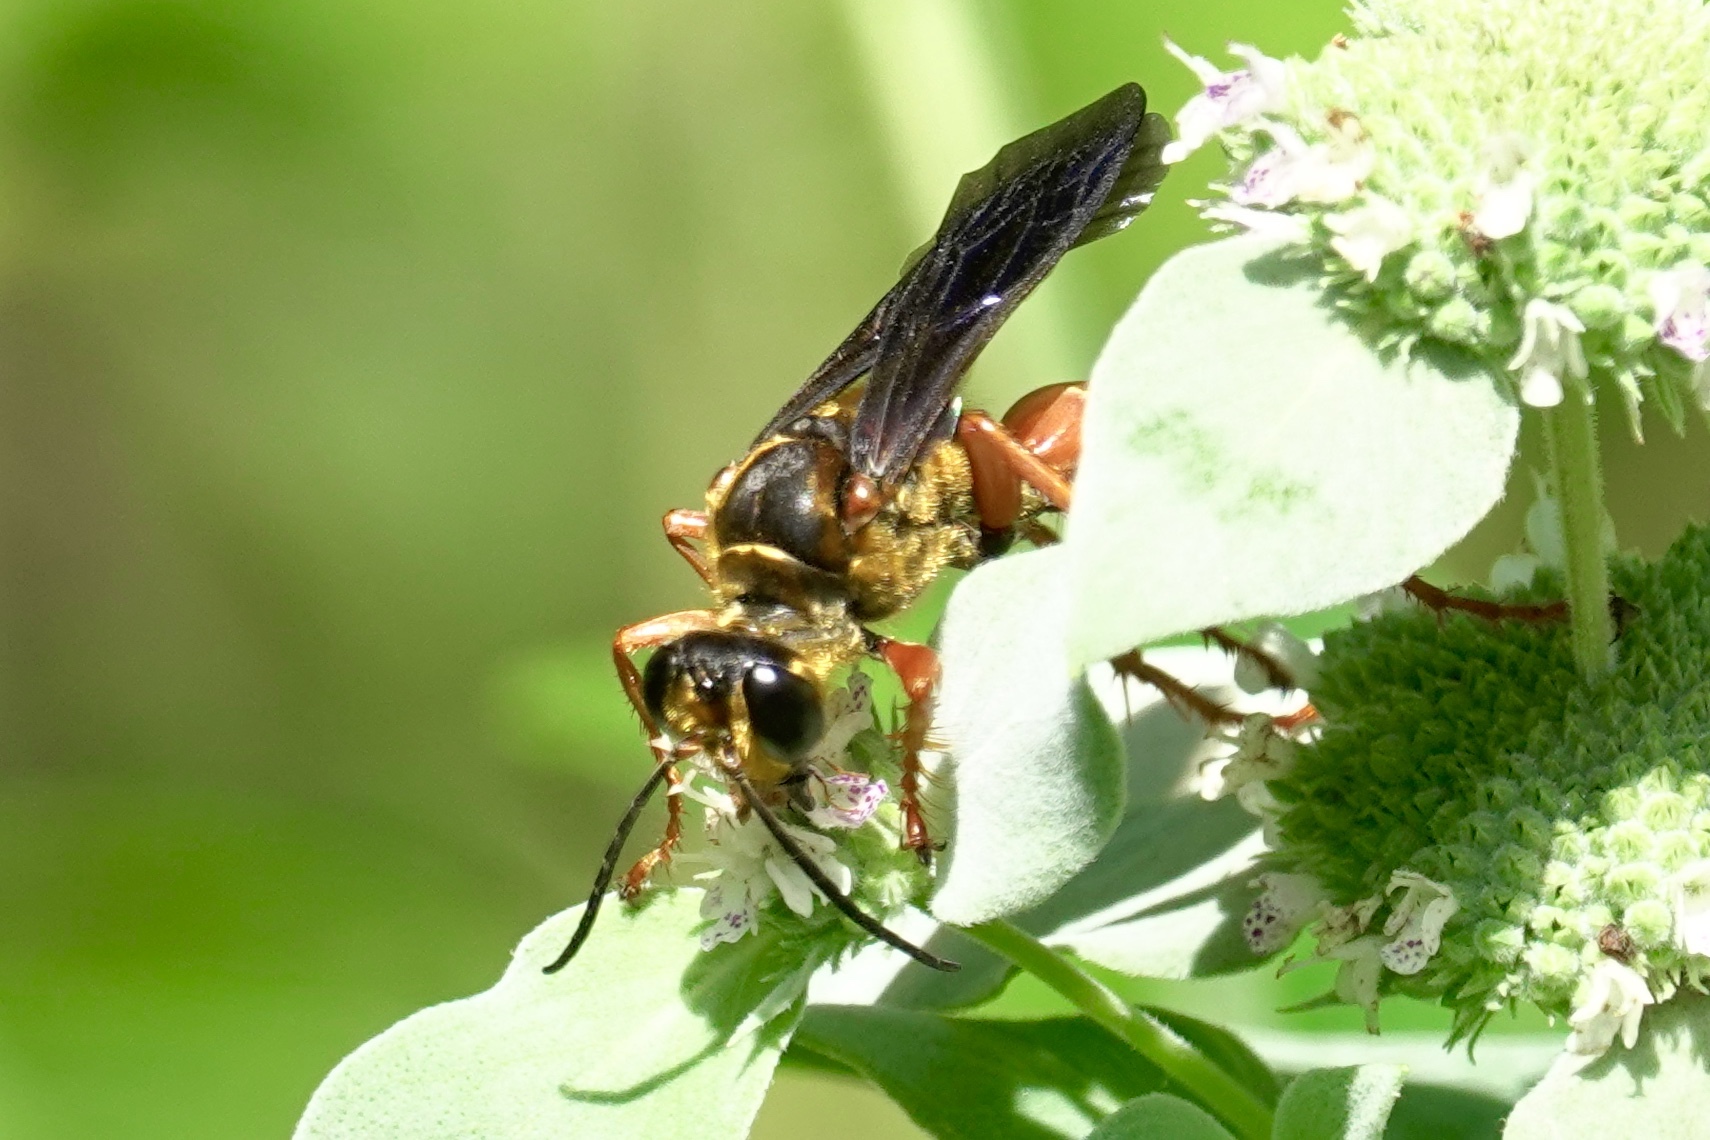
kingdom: Animalia
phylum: Arthropoda
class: Insecta
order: Hymenoptera
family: Sphecidae
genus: Sphex
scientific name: Sphex ichneumoneus
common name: Great golden digger wasp
